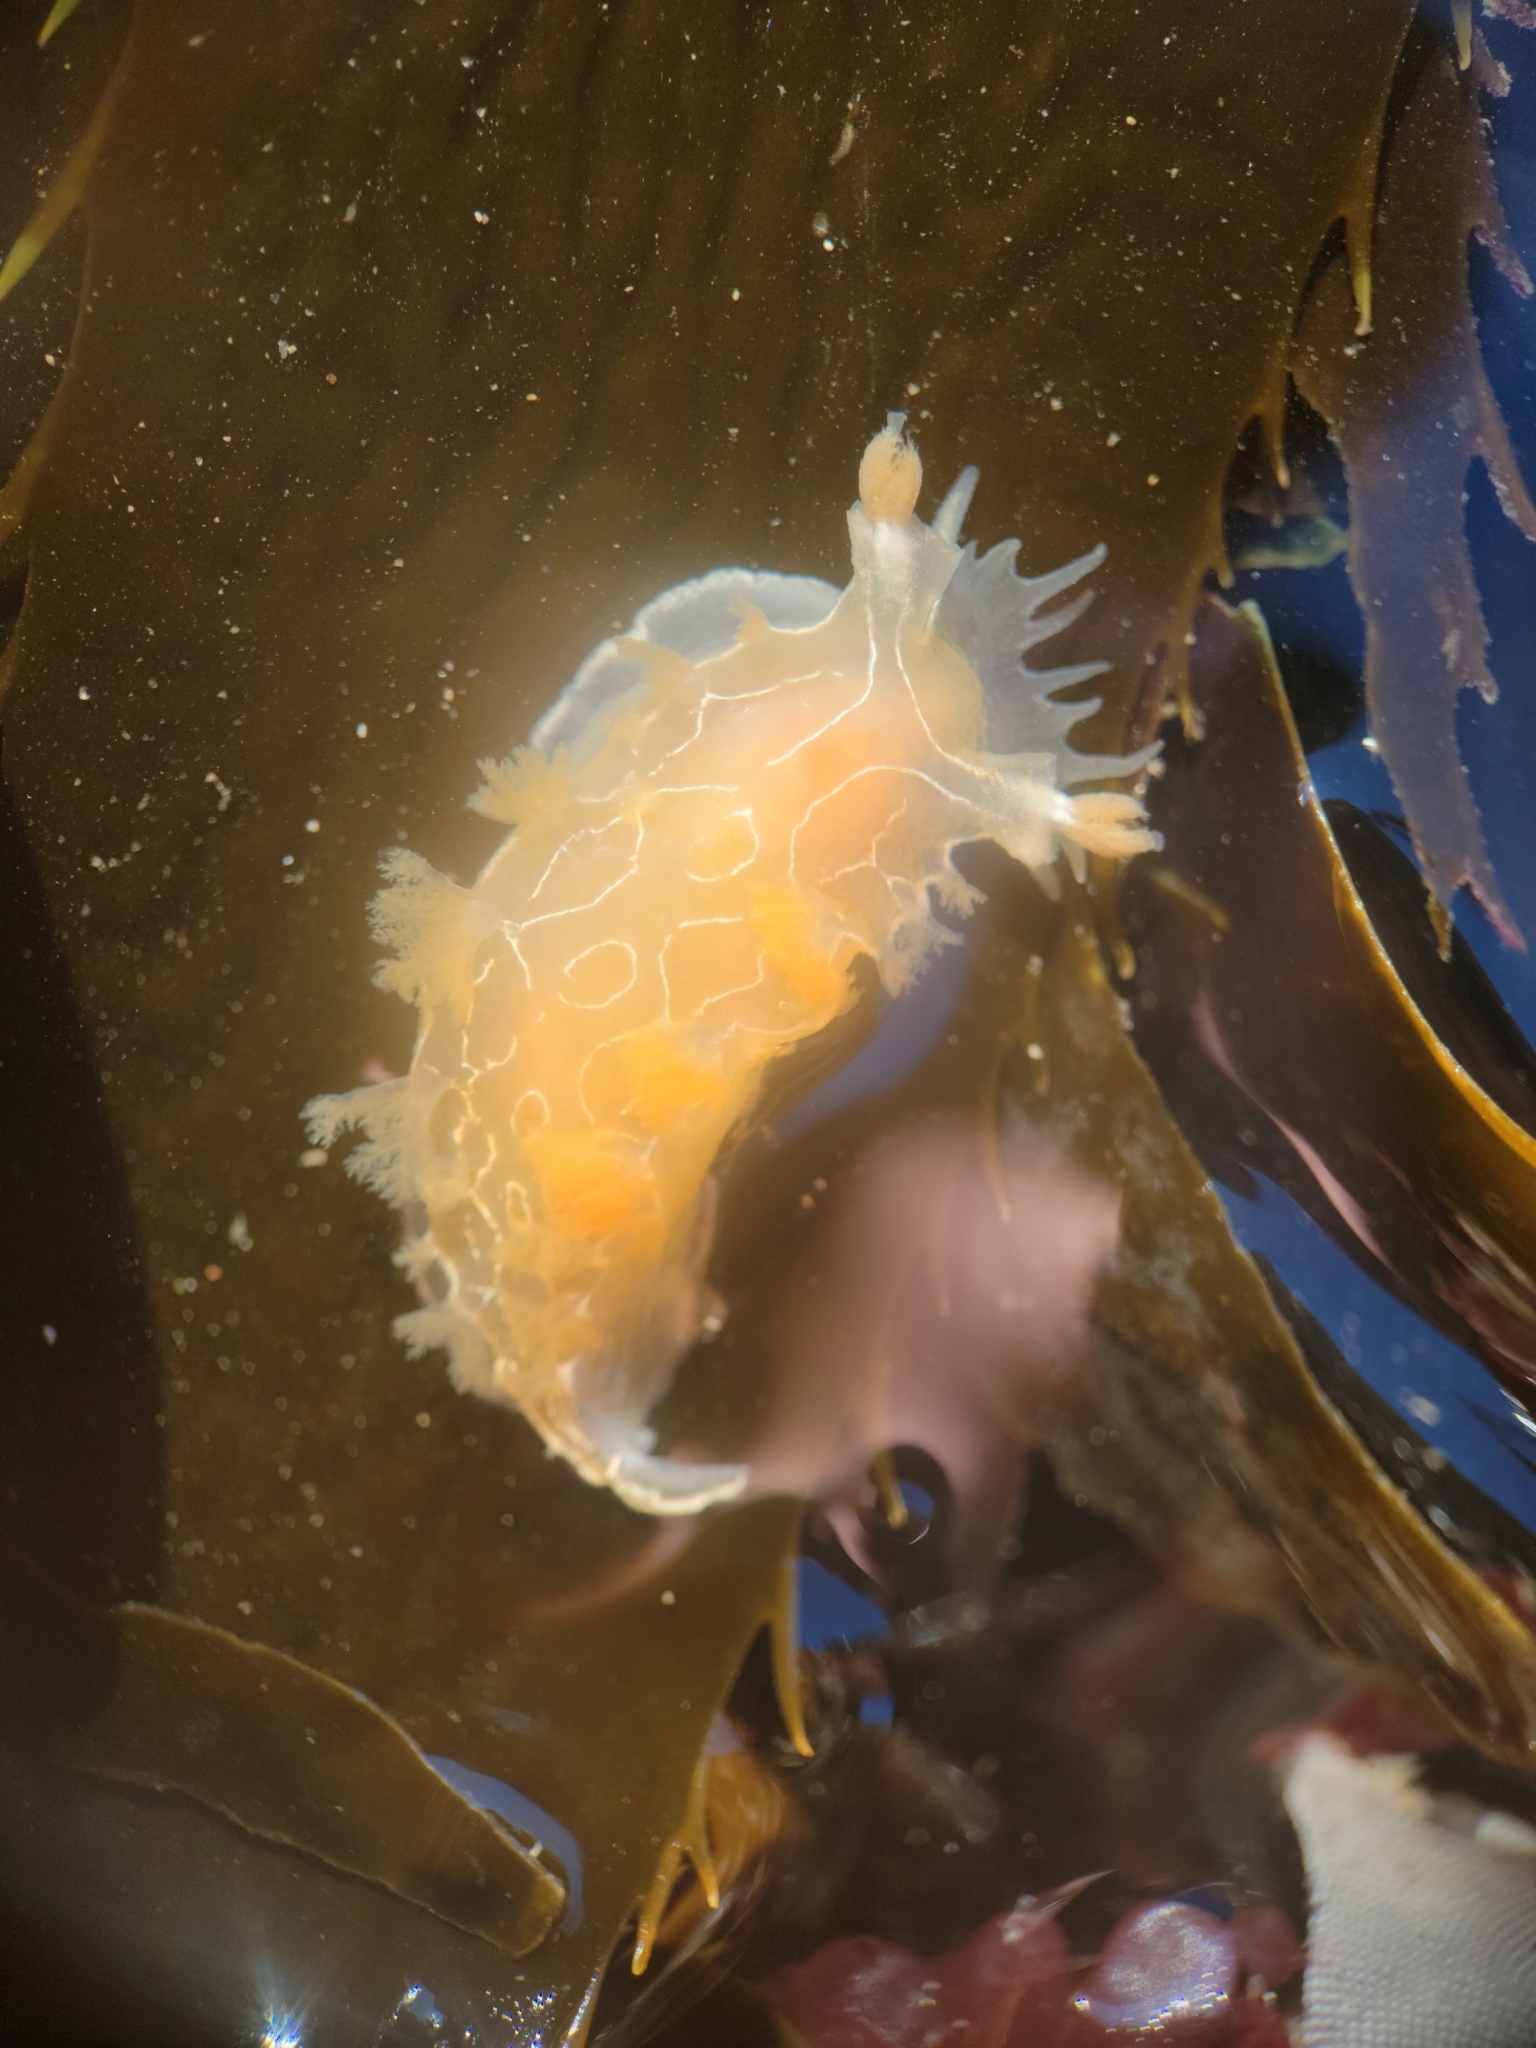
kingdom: Animalia
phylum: Mollusca
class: Gastropoda
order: Nudibranchia
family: Tritoniidae
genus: Tritonia
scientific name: Tritonia festiva
